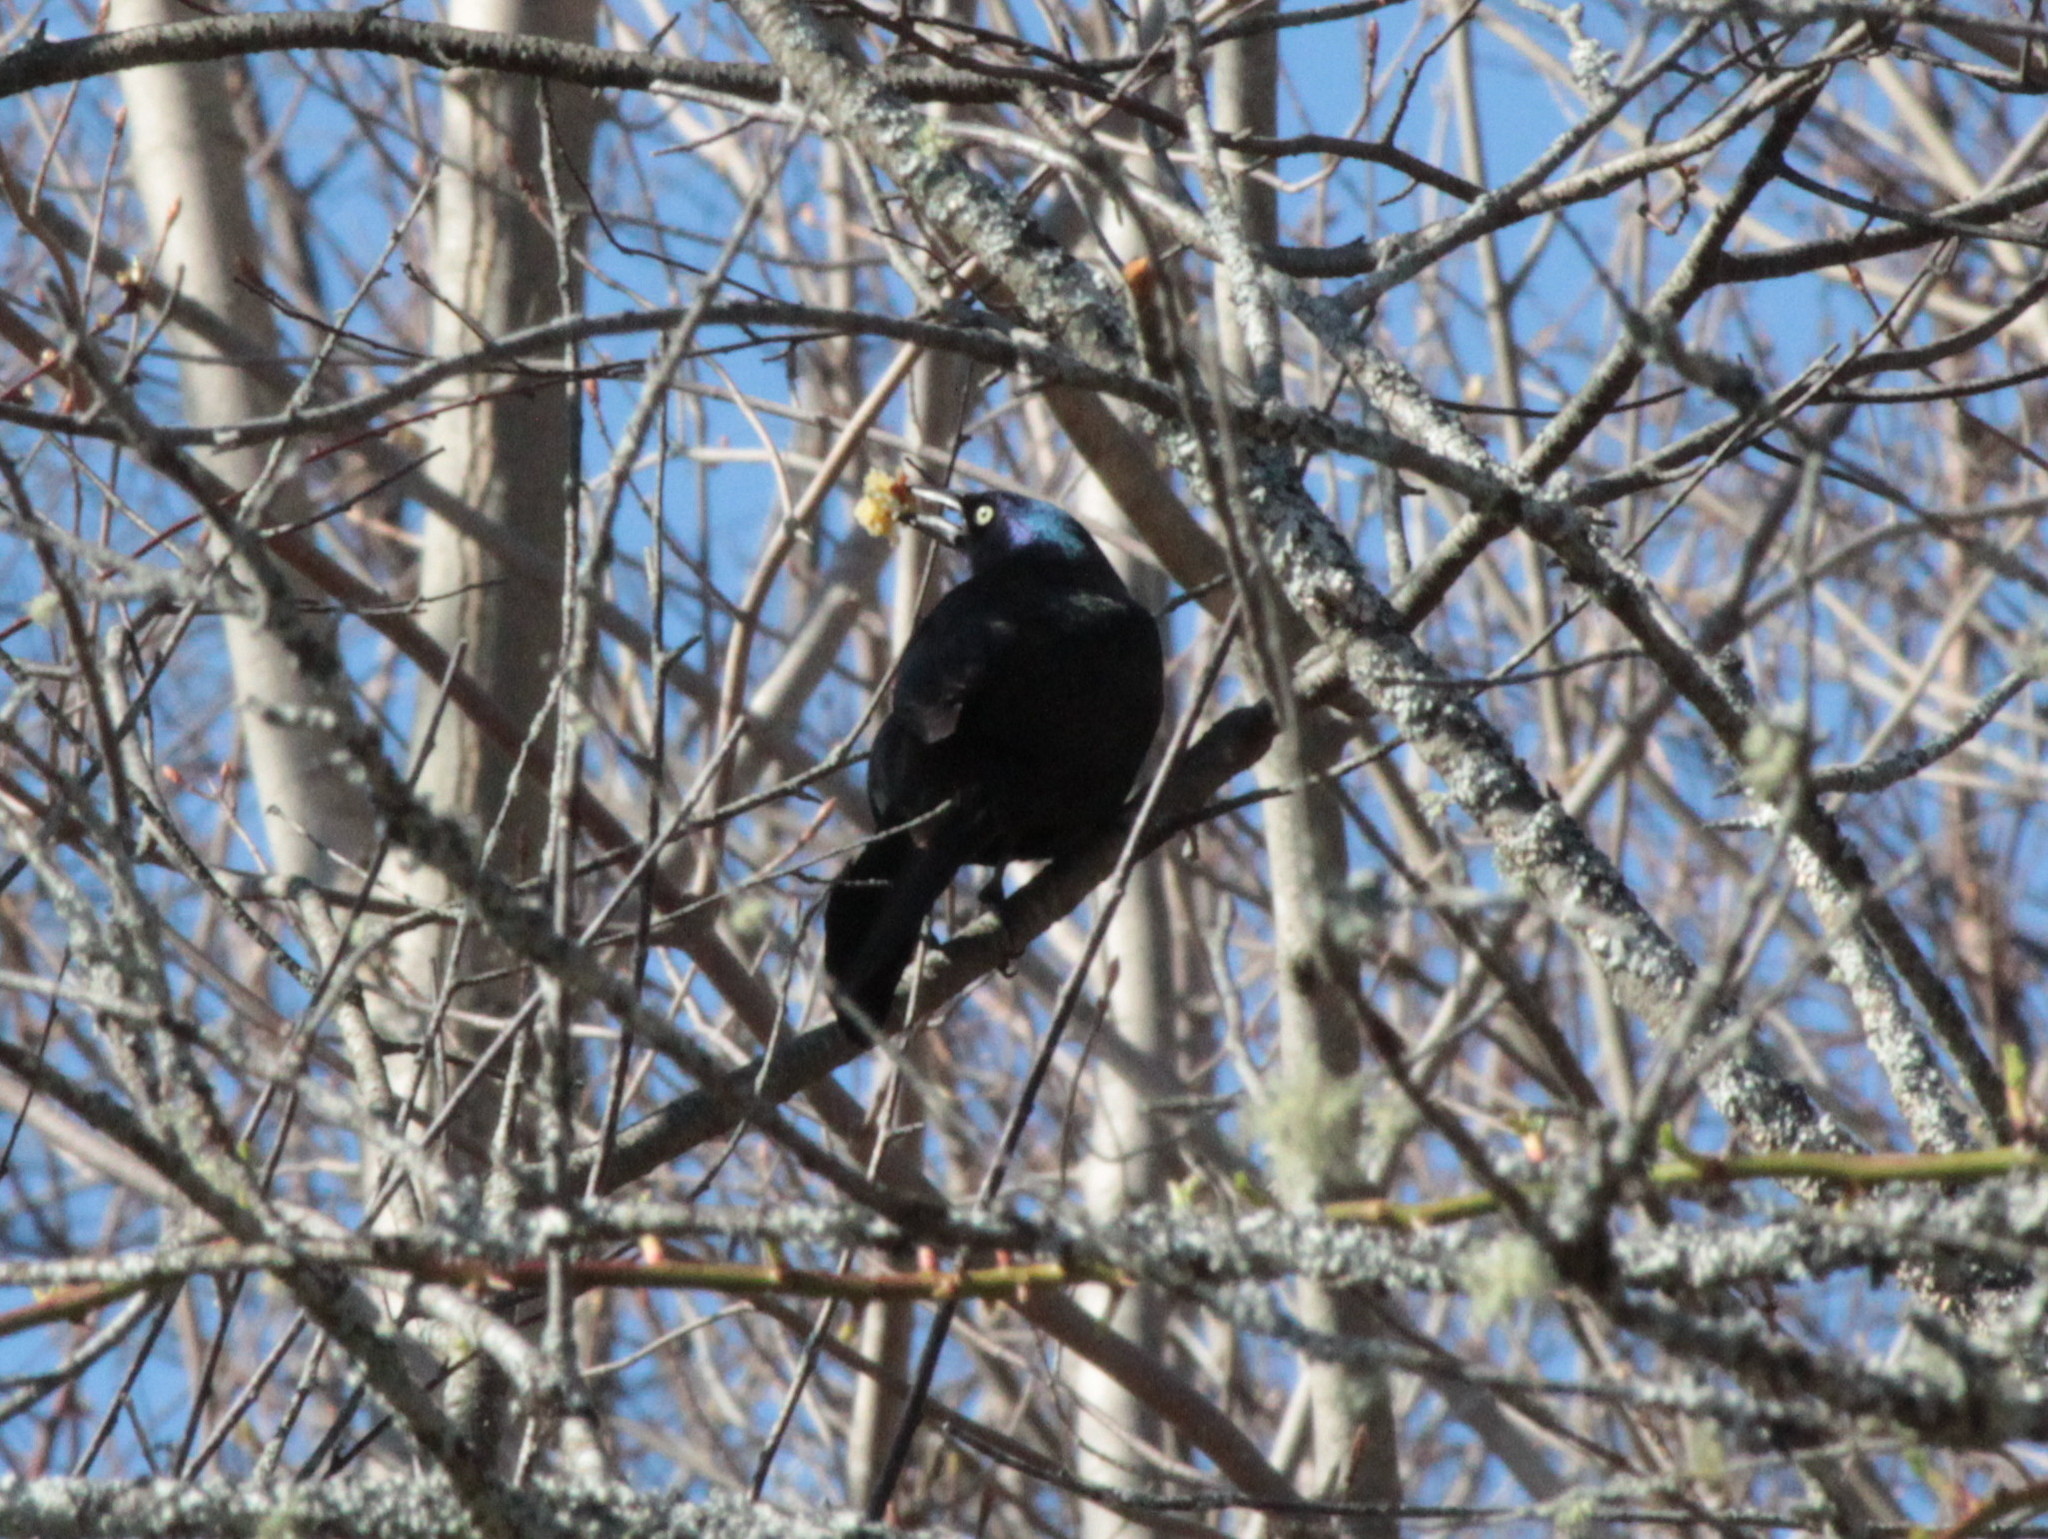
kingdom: Animalia
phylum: Chordata
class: Aves
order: Passeriformes
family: Icteridae
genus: Quiscalus
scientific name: Quiscalus quiscula
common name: Common grackle
